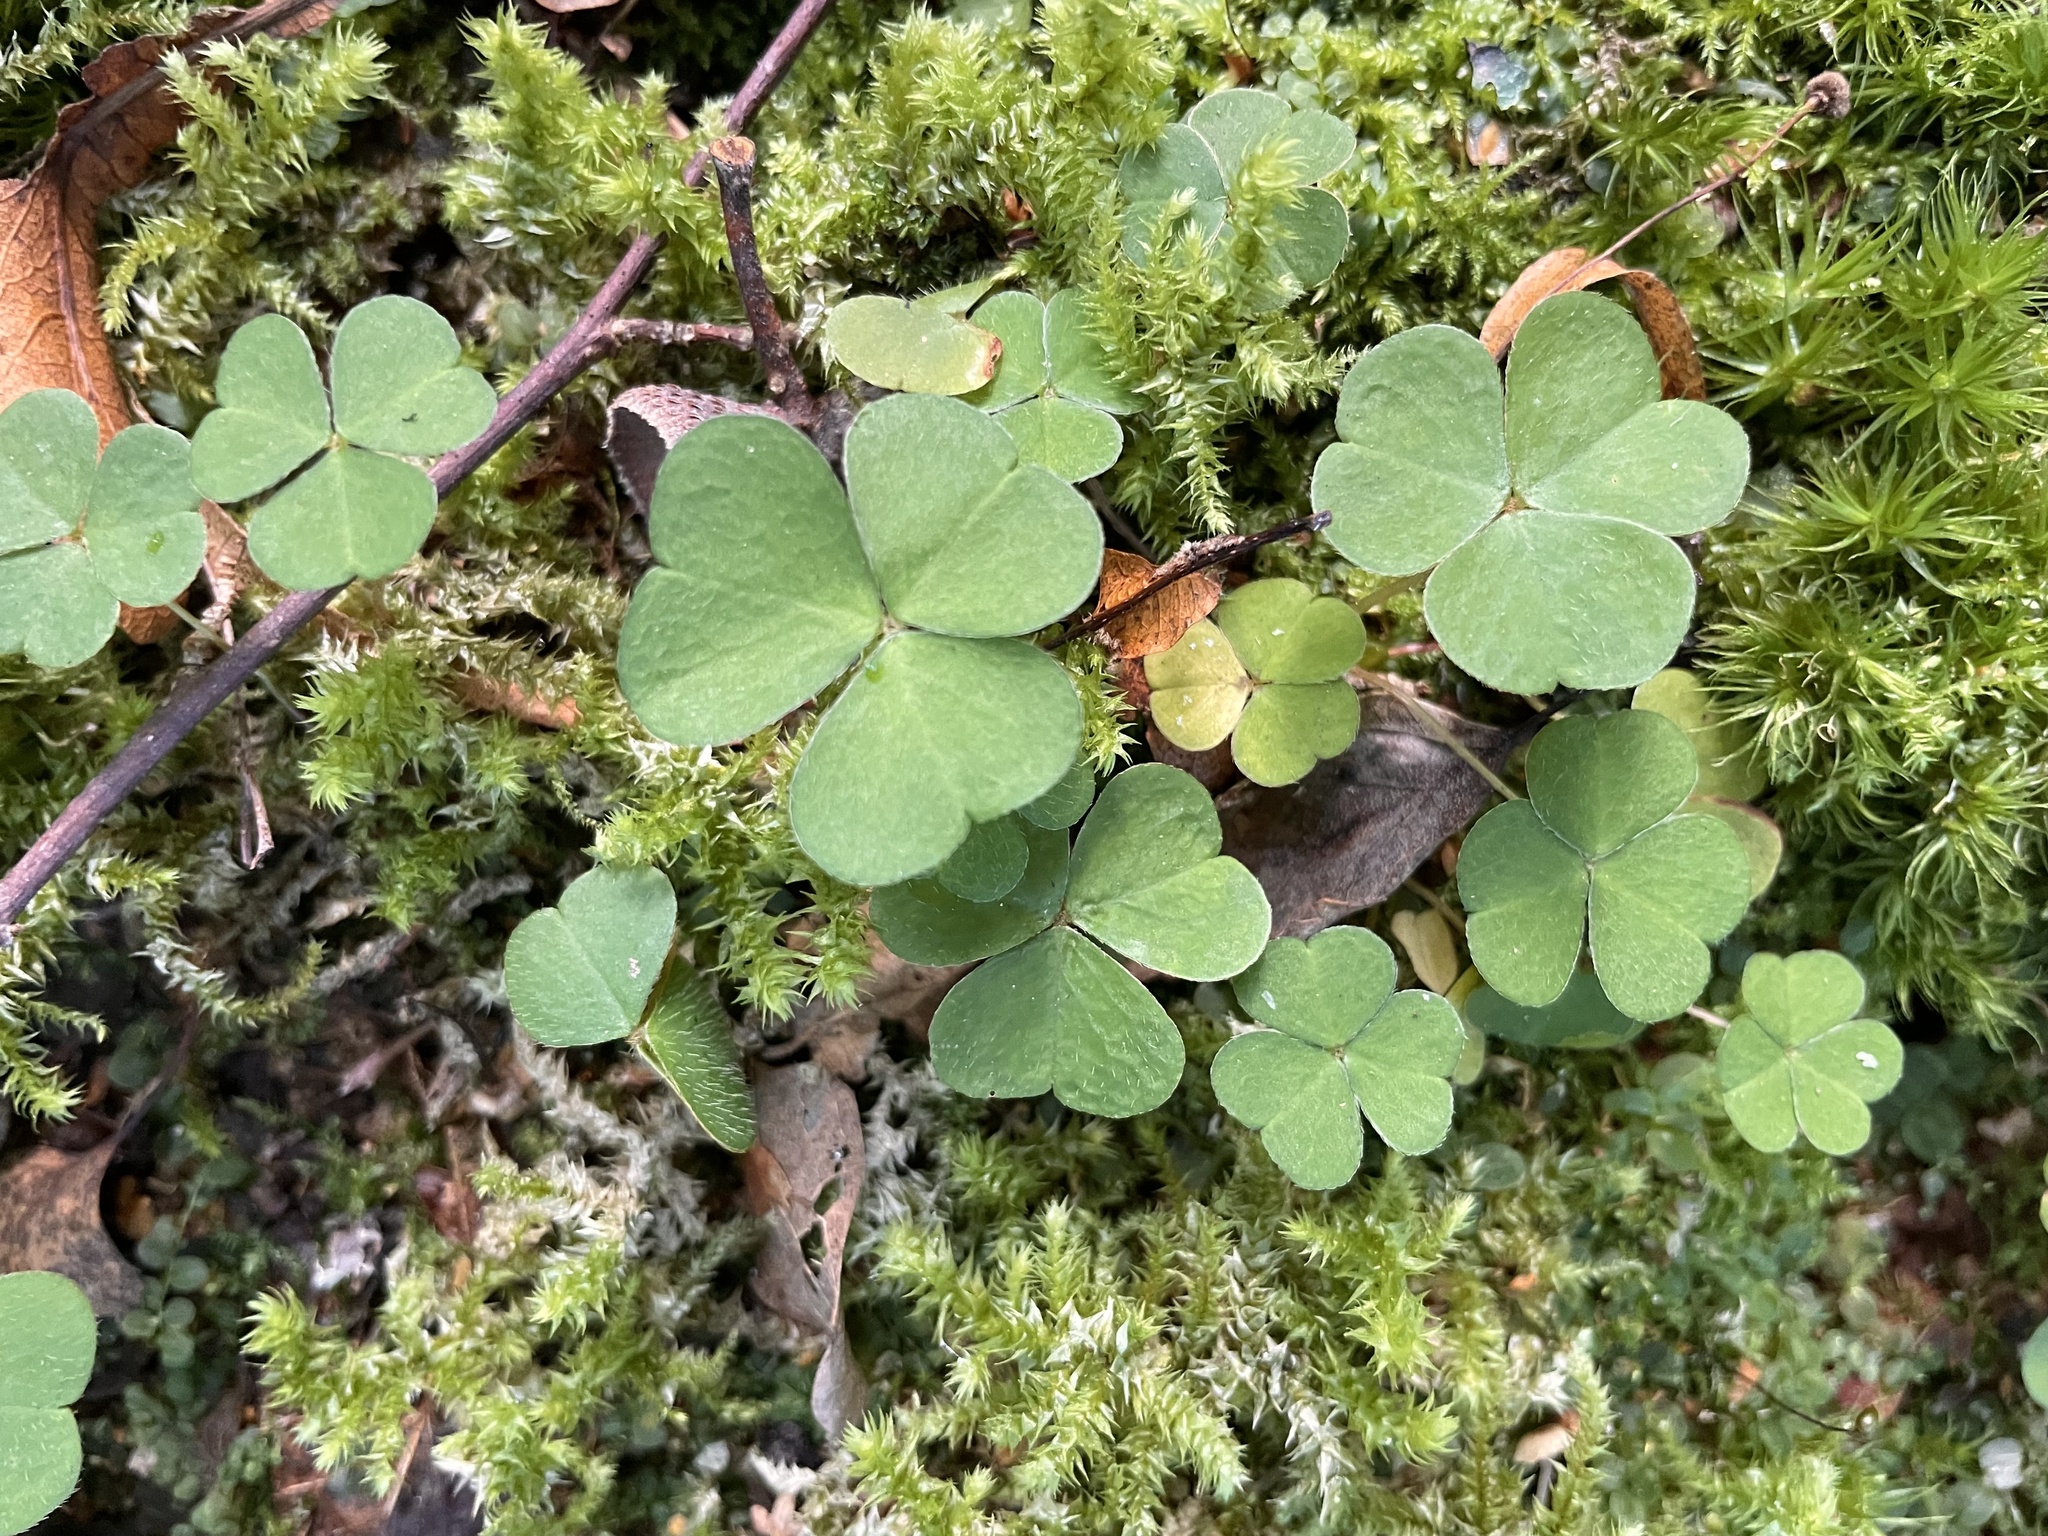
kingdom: Plantae
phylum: Tracheophyta
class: Magnoliopsida
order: Oxalidales
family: Oxalidaceae
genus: Oxalis
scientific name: Oxalis acetosella
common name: Wood-sorrel
